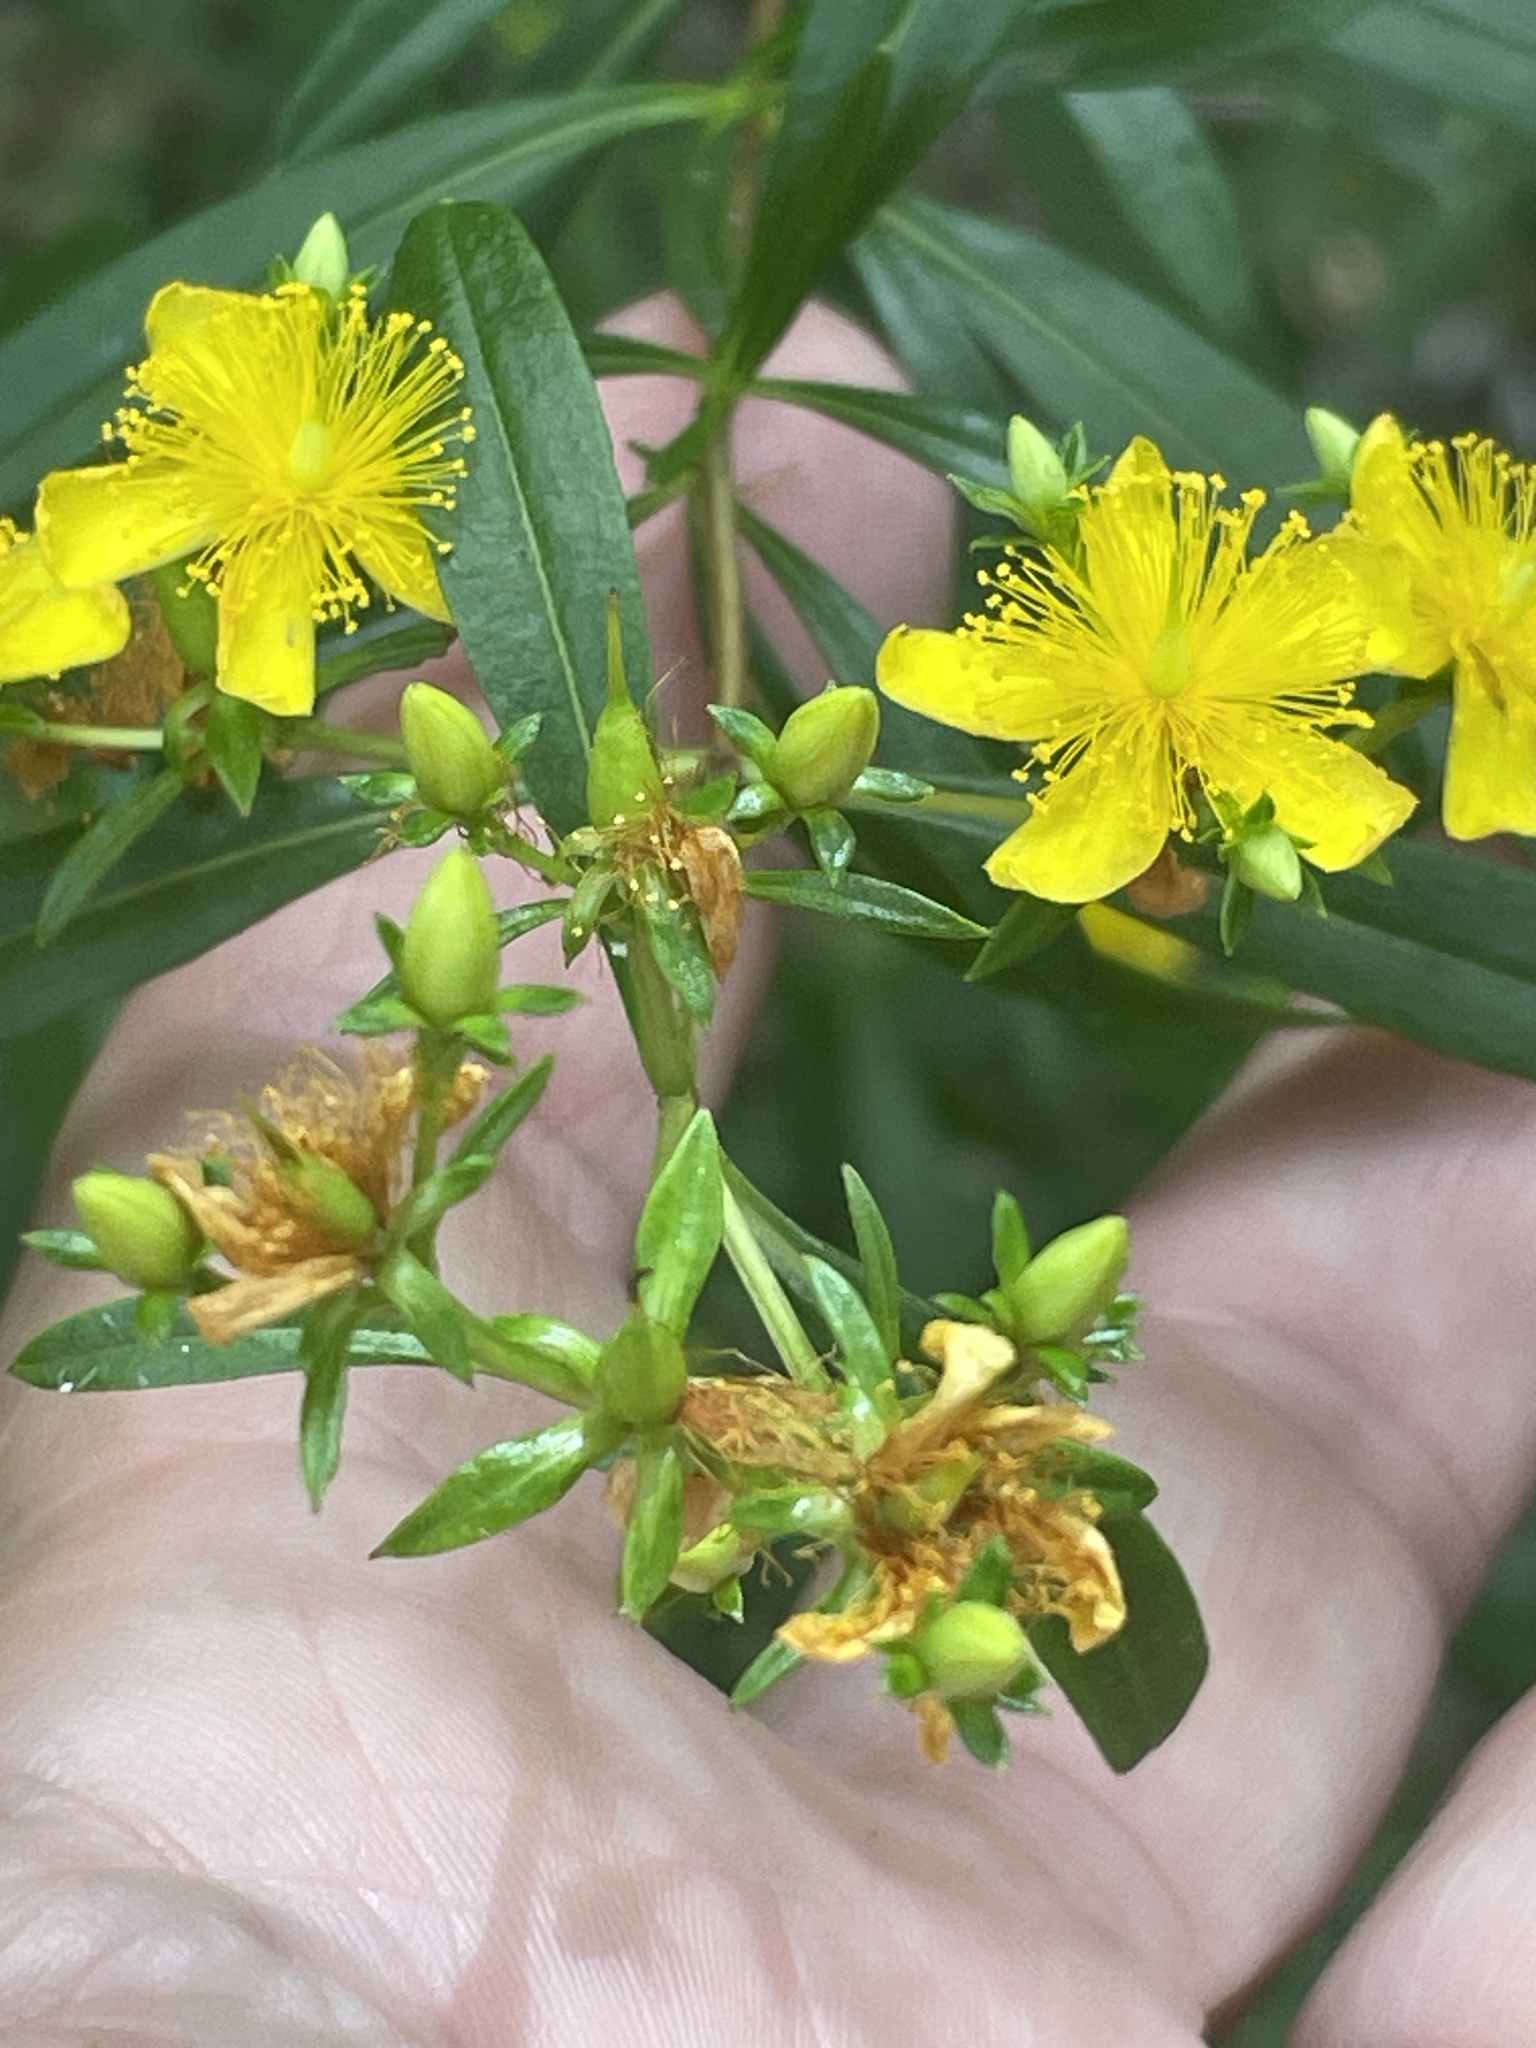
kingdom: Plantae
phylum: Tracheophyta
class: Magnoliopsida
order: Malpighiales
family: Hypericaceae
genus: Hypericum
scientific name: Hypericum prolificum
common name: Shrubby st. john's-wort
